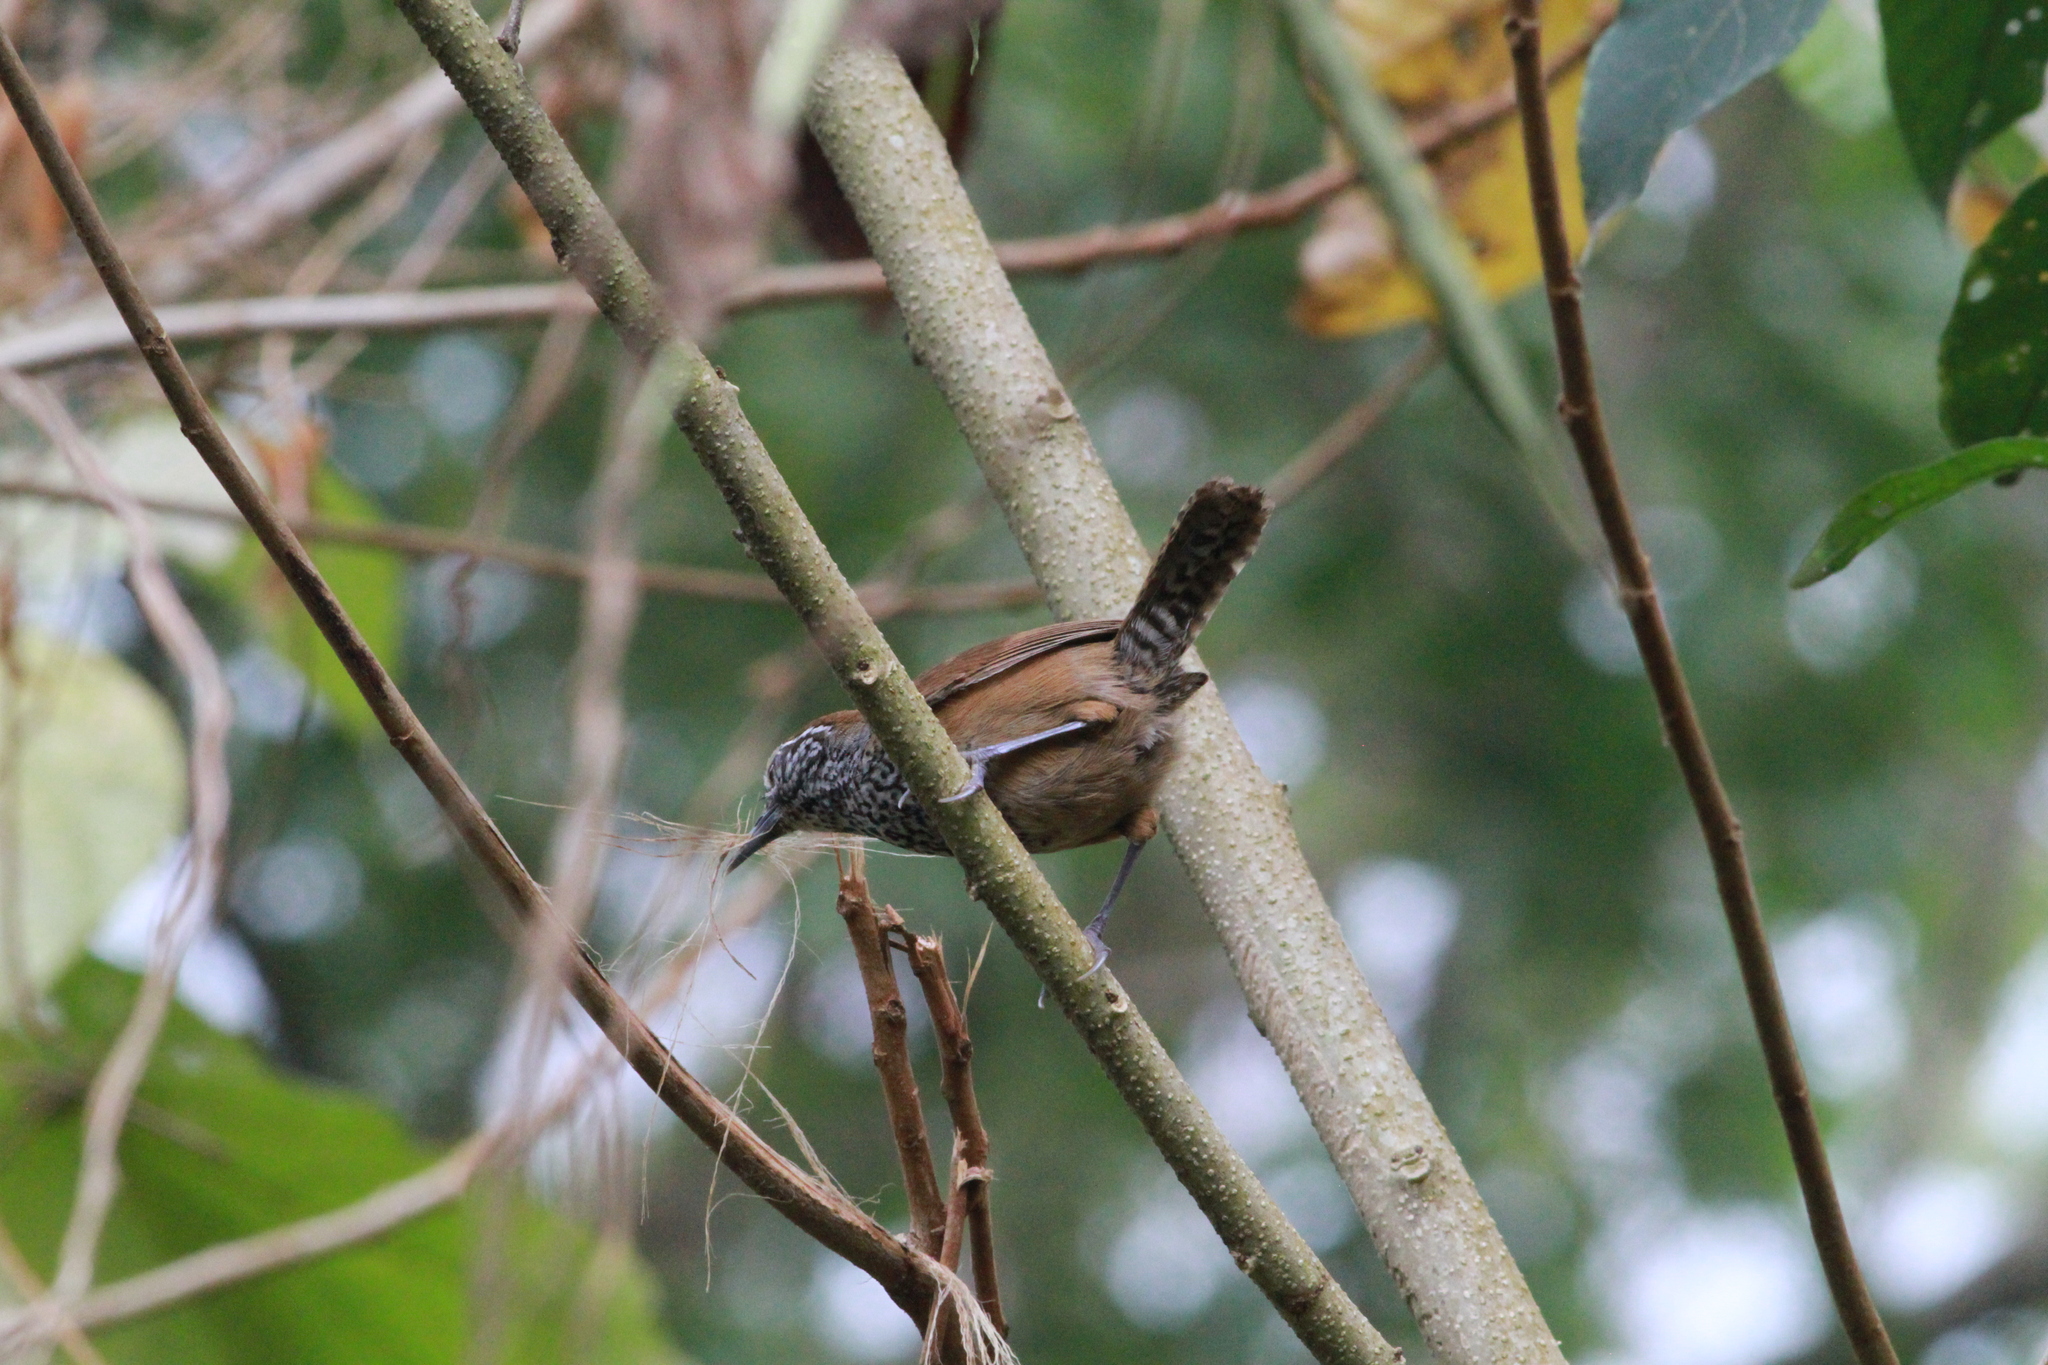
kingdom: Animalia
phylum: Chordata
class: Aves
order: Passeriformes
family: Troglodytidae
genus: Pheugopedius
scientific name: Pheugopedius maculipectus
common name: Spot-breasted wren
